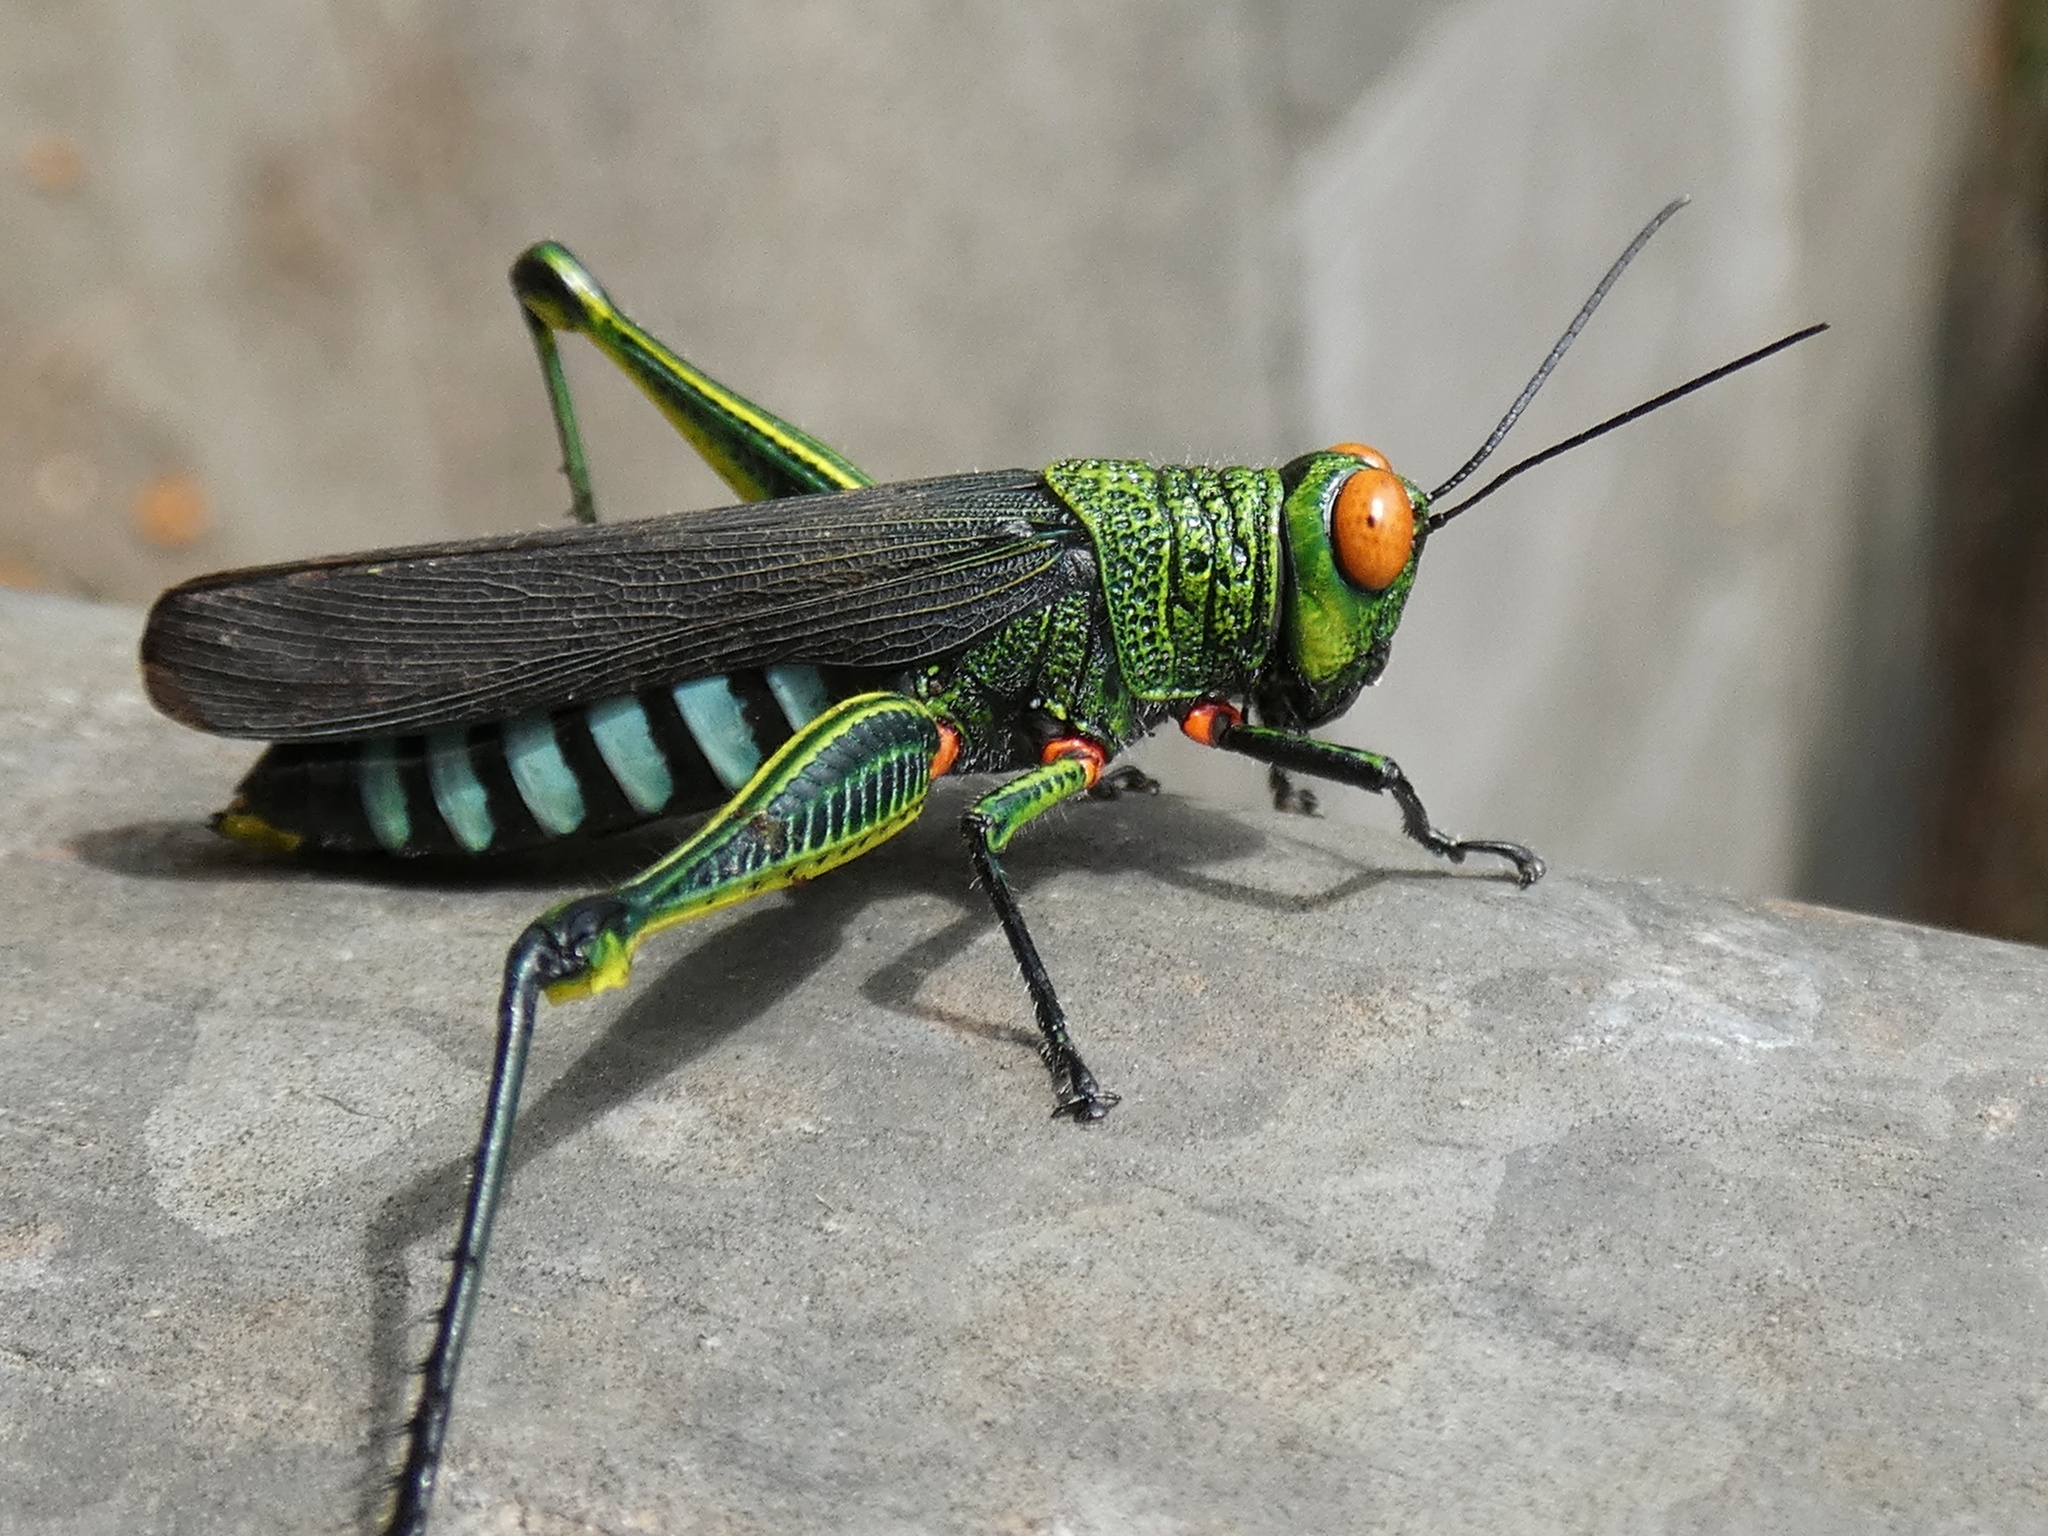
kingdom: Animalia
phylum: Arthropoda
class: Insecta
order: Orthoptera
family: Acrididae
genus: Coscineuta
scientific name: Coscineuta coxalis
